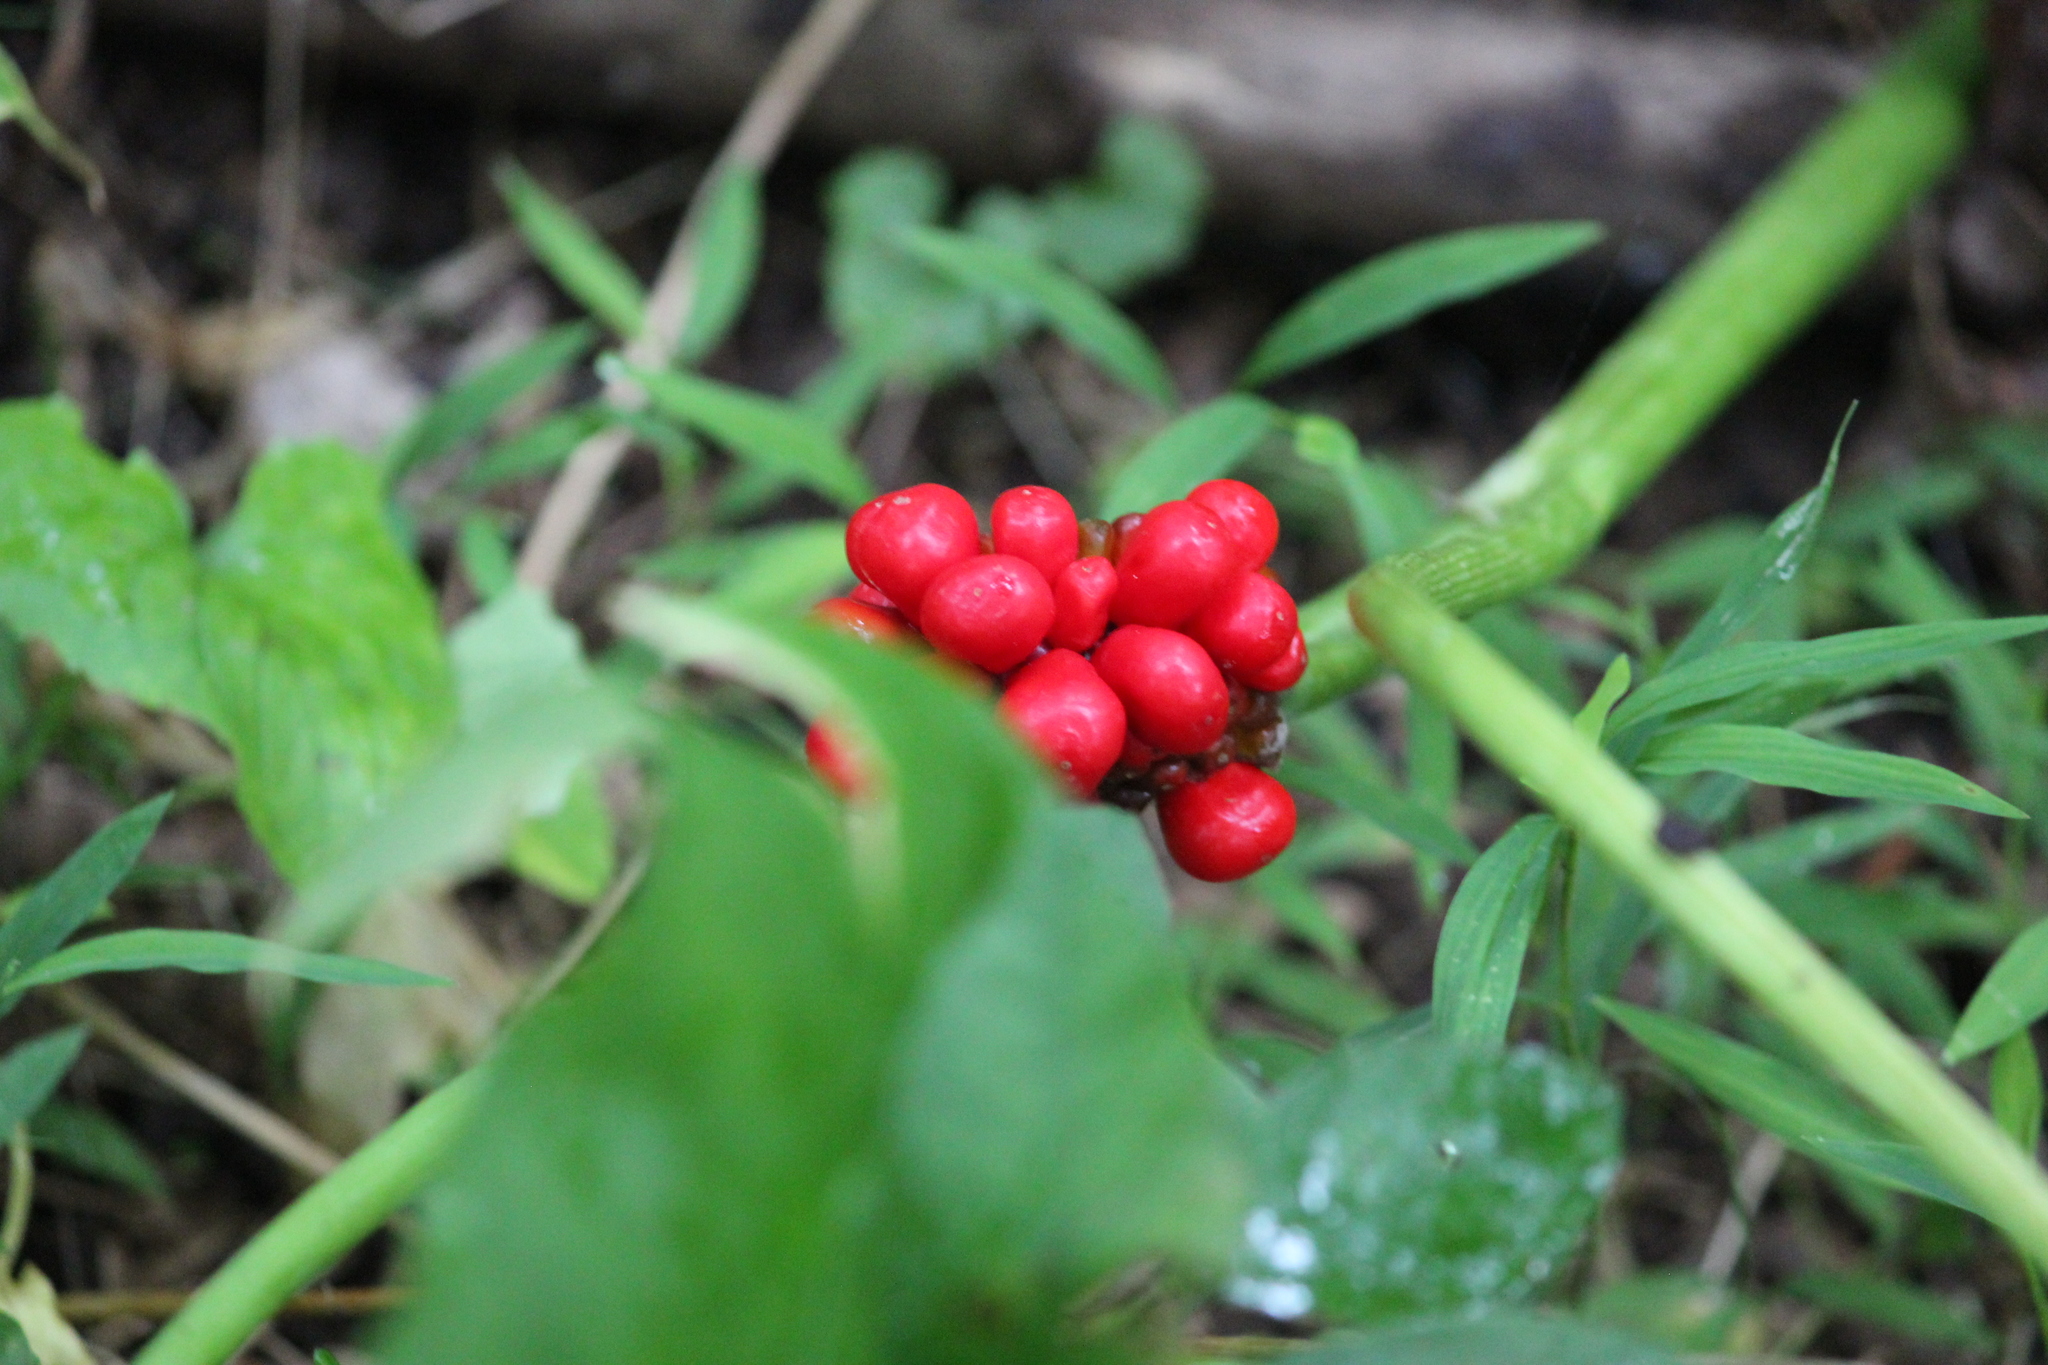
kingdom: Plantae
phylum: Tracheophyta
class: Liliopsida
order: Alismatales
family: Araceae
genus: Arisaema
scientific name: Arisaema triphyllum
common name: Jack-in-the-pulpit
